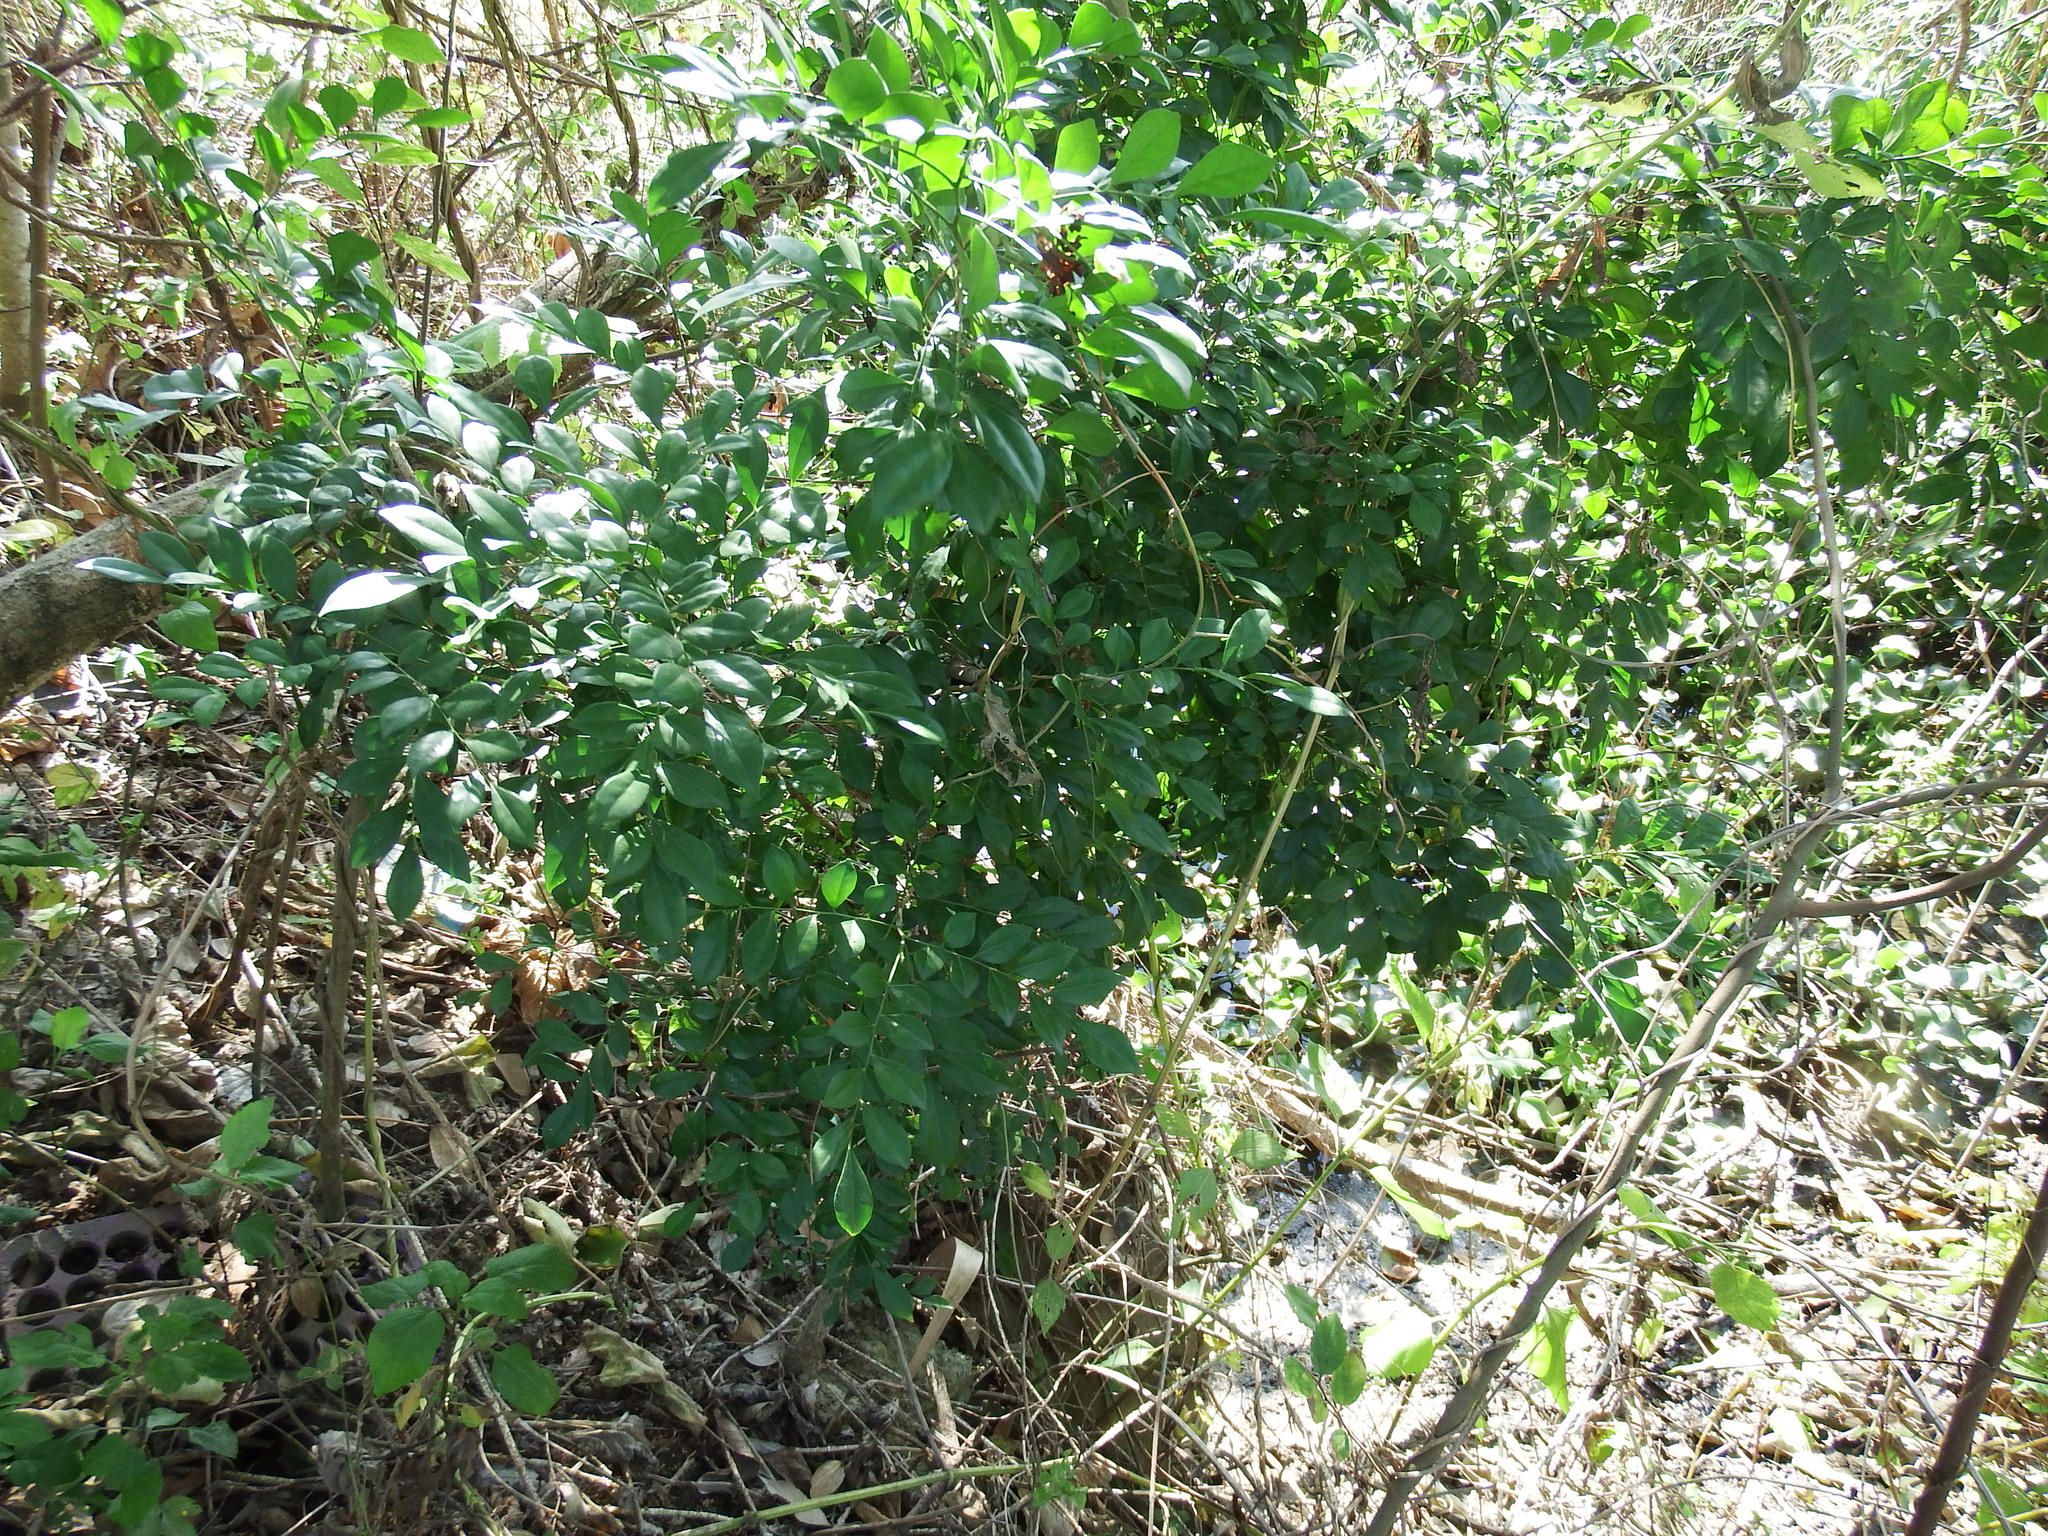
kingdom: Plantae
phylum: Tracheophyta
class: Magnoliopsida
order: Sapindales
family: Rutaceae
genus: Murraya
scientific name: Murraya paniculata
